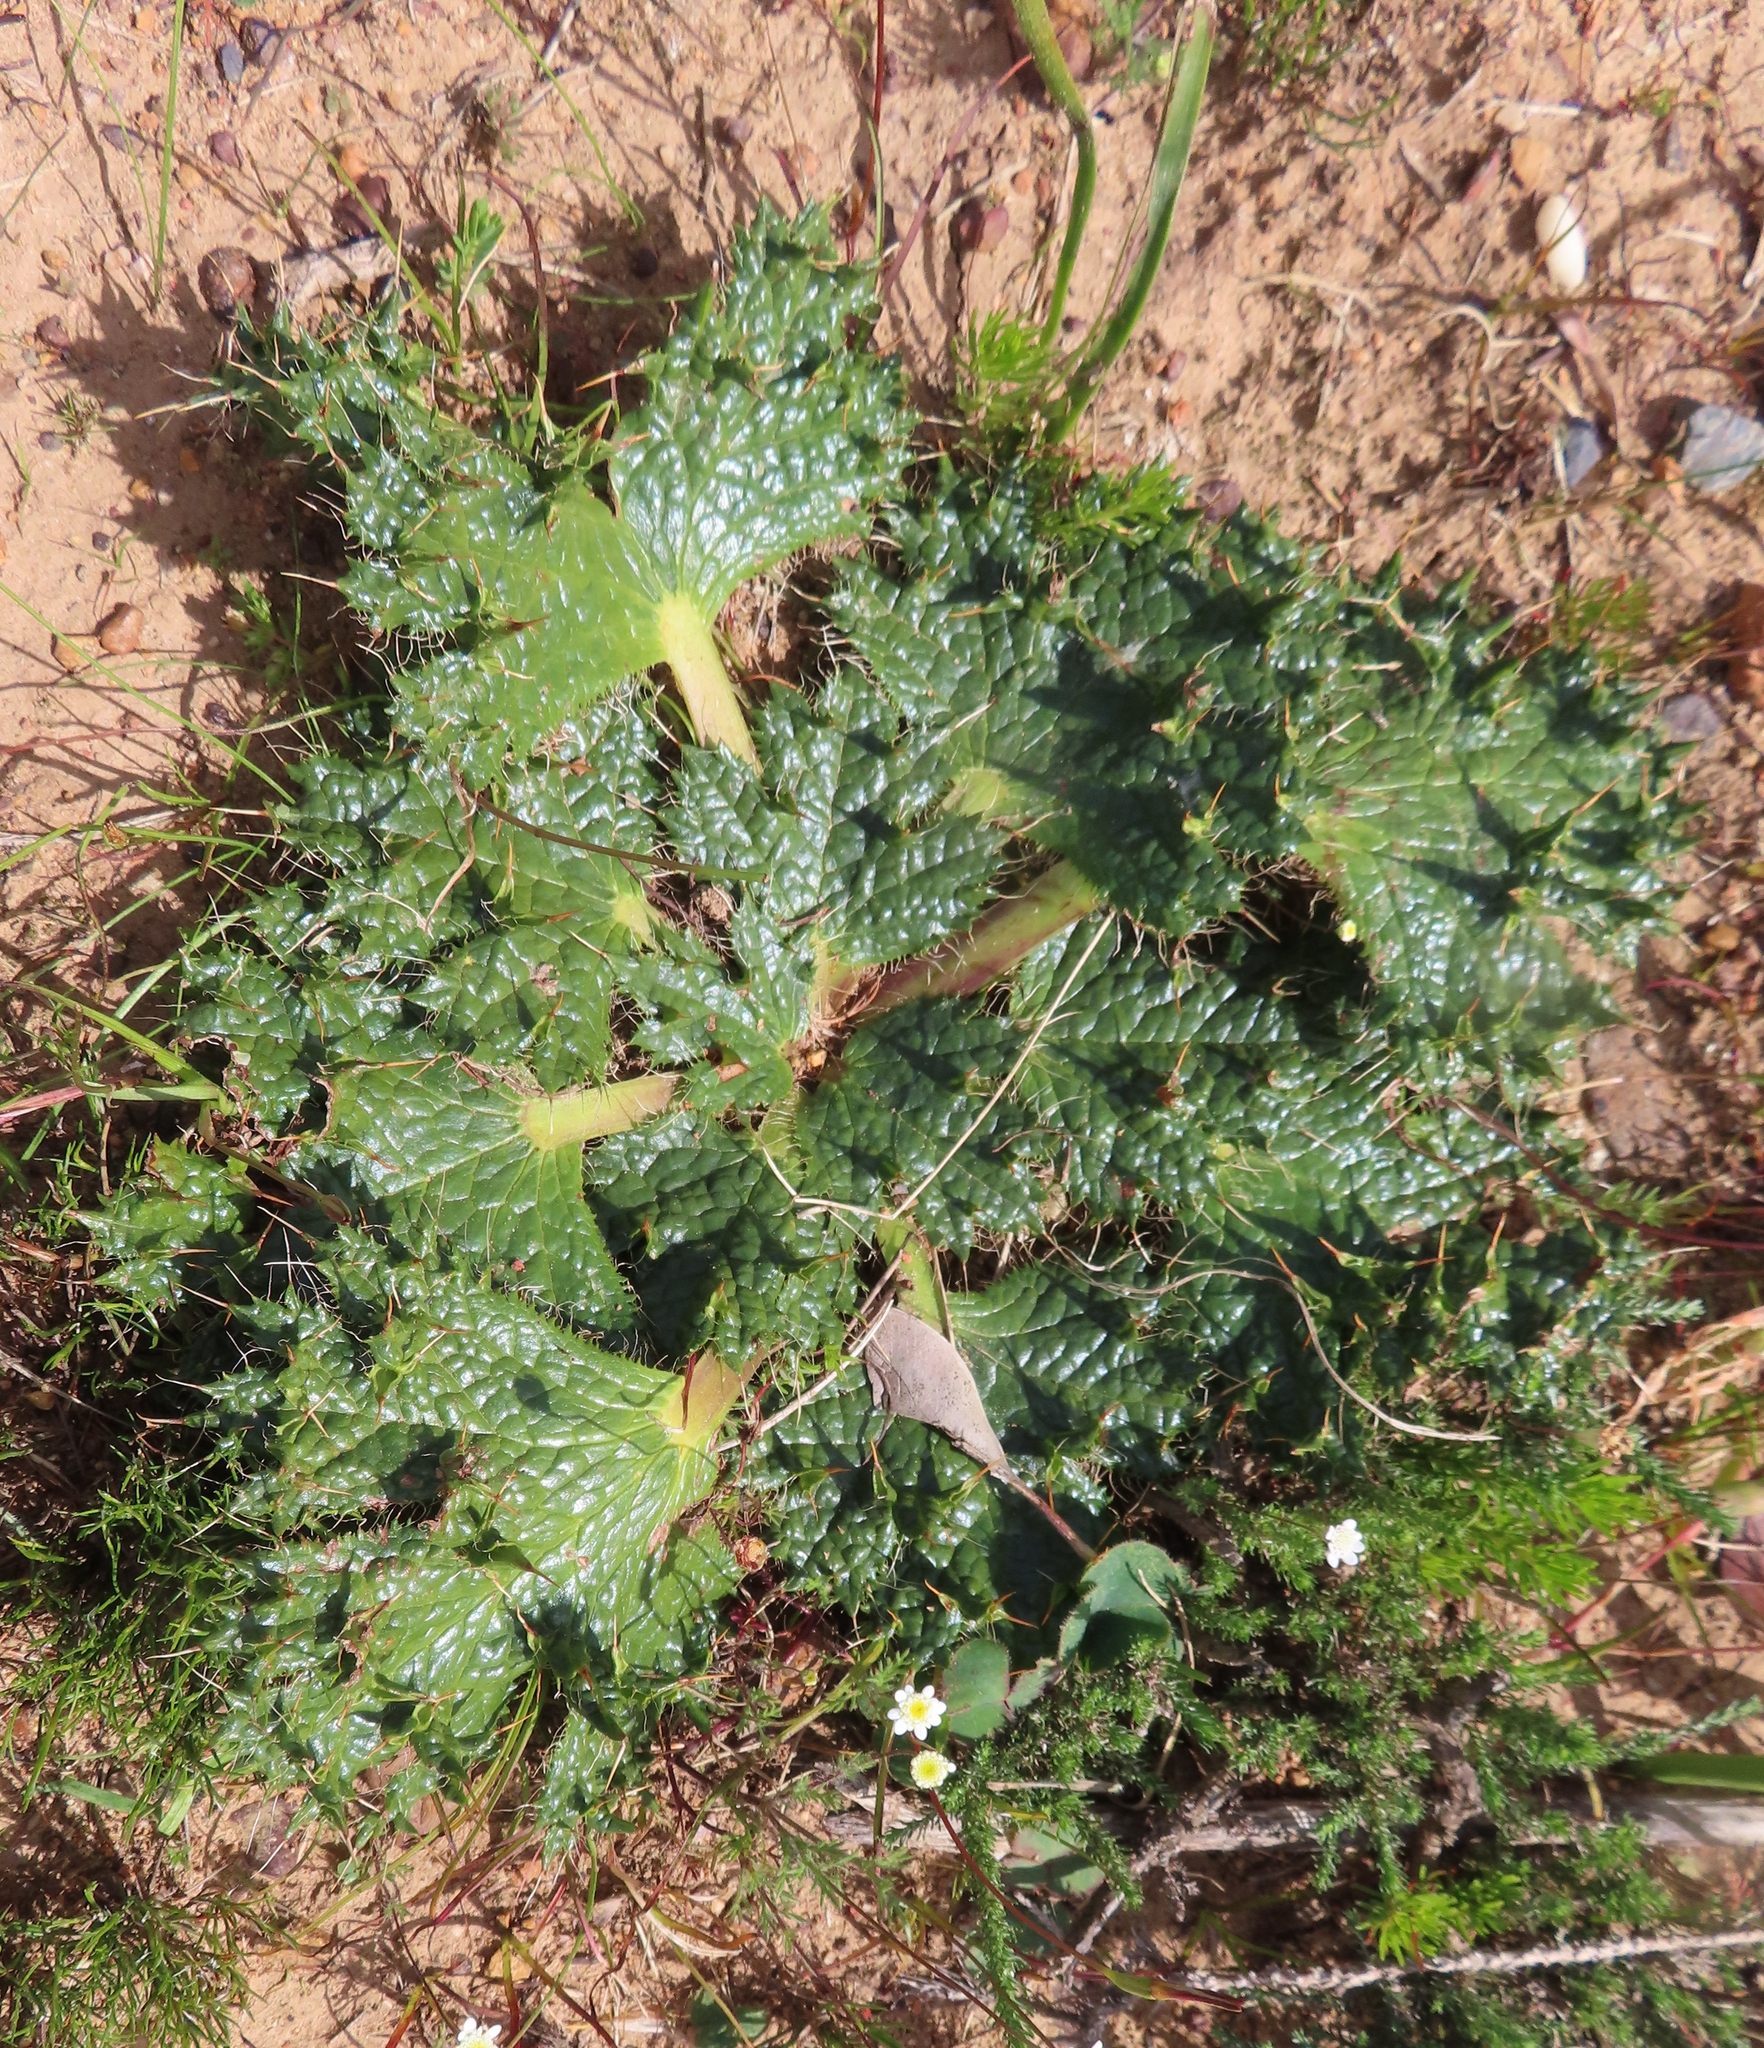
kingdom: Plantae
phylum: Tracheophyta
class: Magnoliopsida
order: Apiales
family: Apiaceae
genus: Arctopus
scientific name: Arctopus monacanthus
